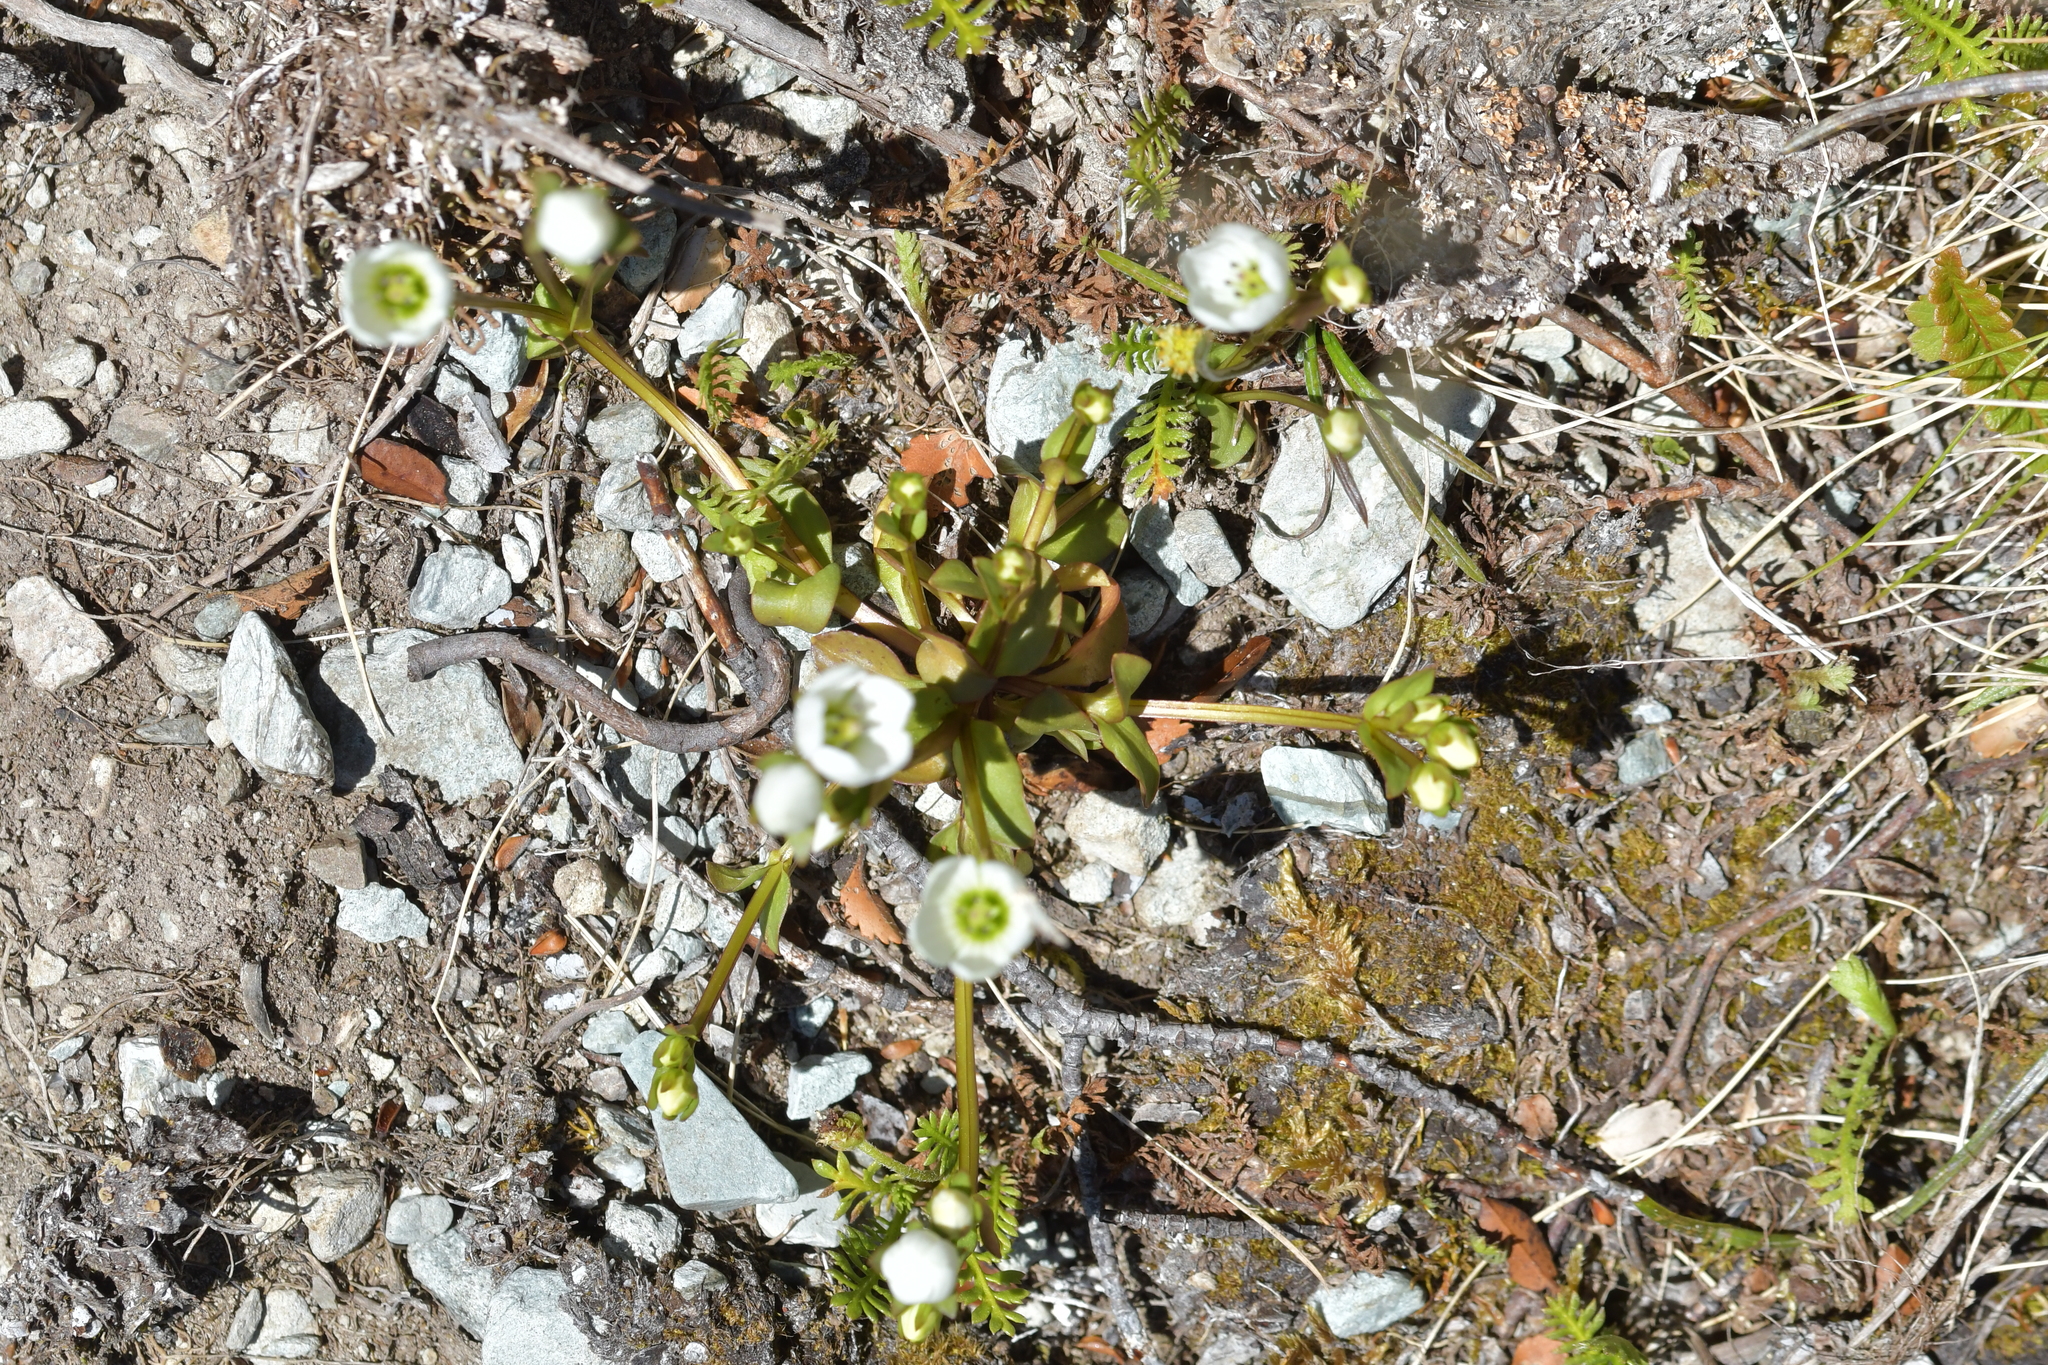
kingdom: Plantae
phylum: Tracheophyta
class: Magnoliopsida
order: Gentianales
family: Gentianaceae
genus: Gentianella
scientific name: Gentianella grisebachii
